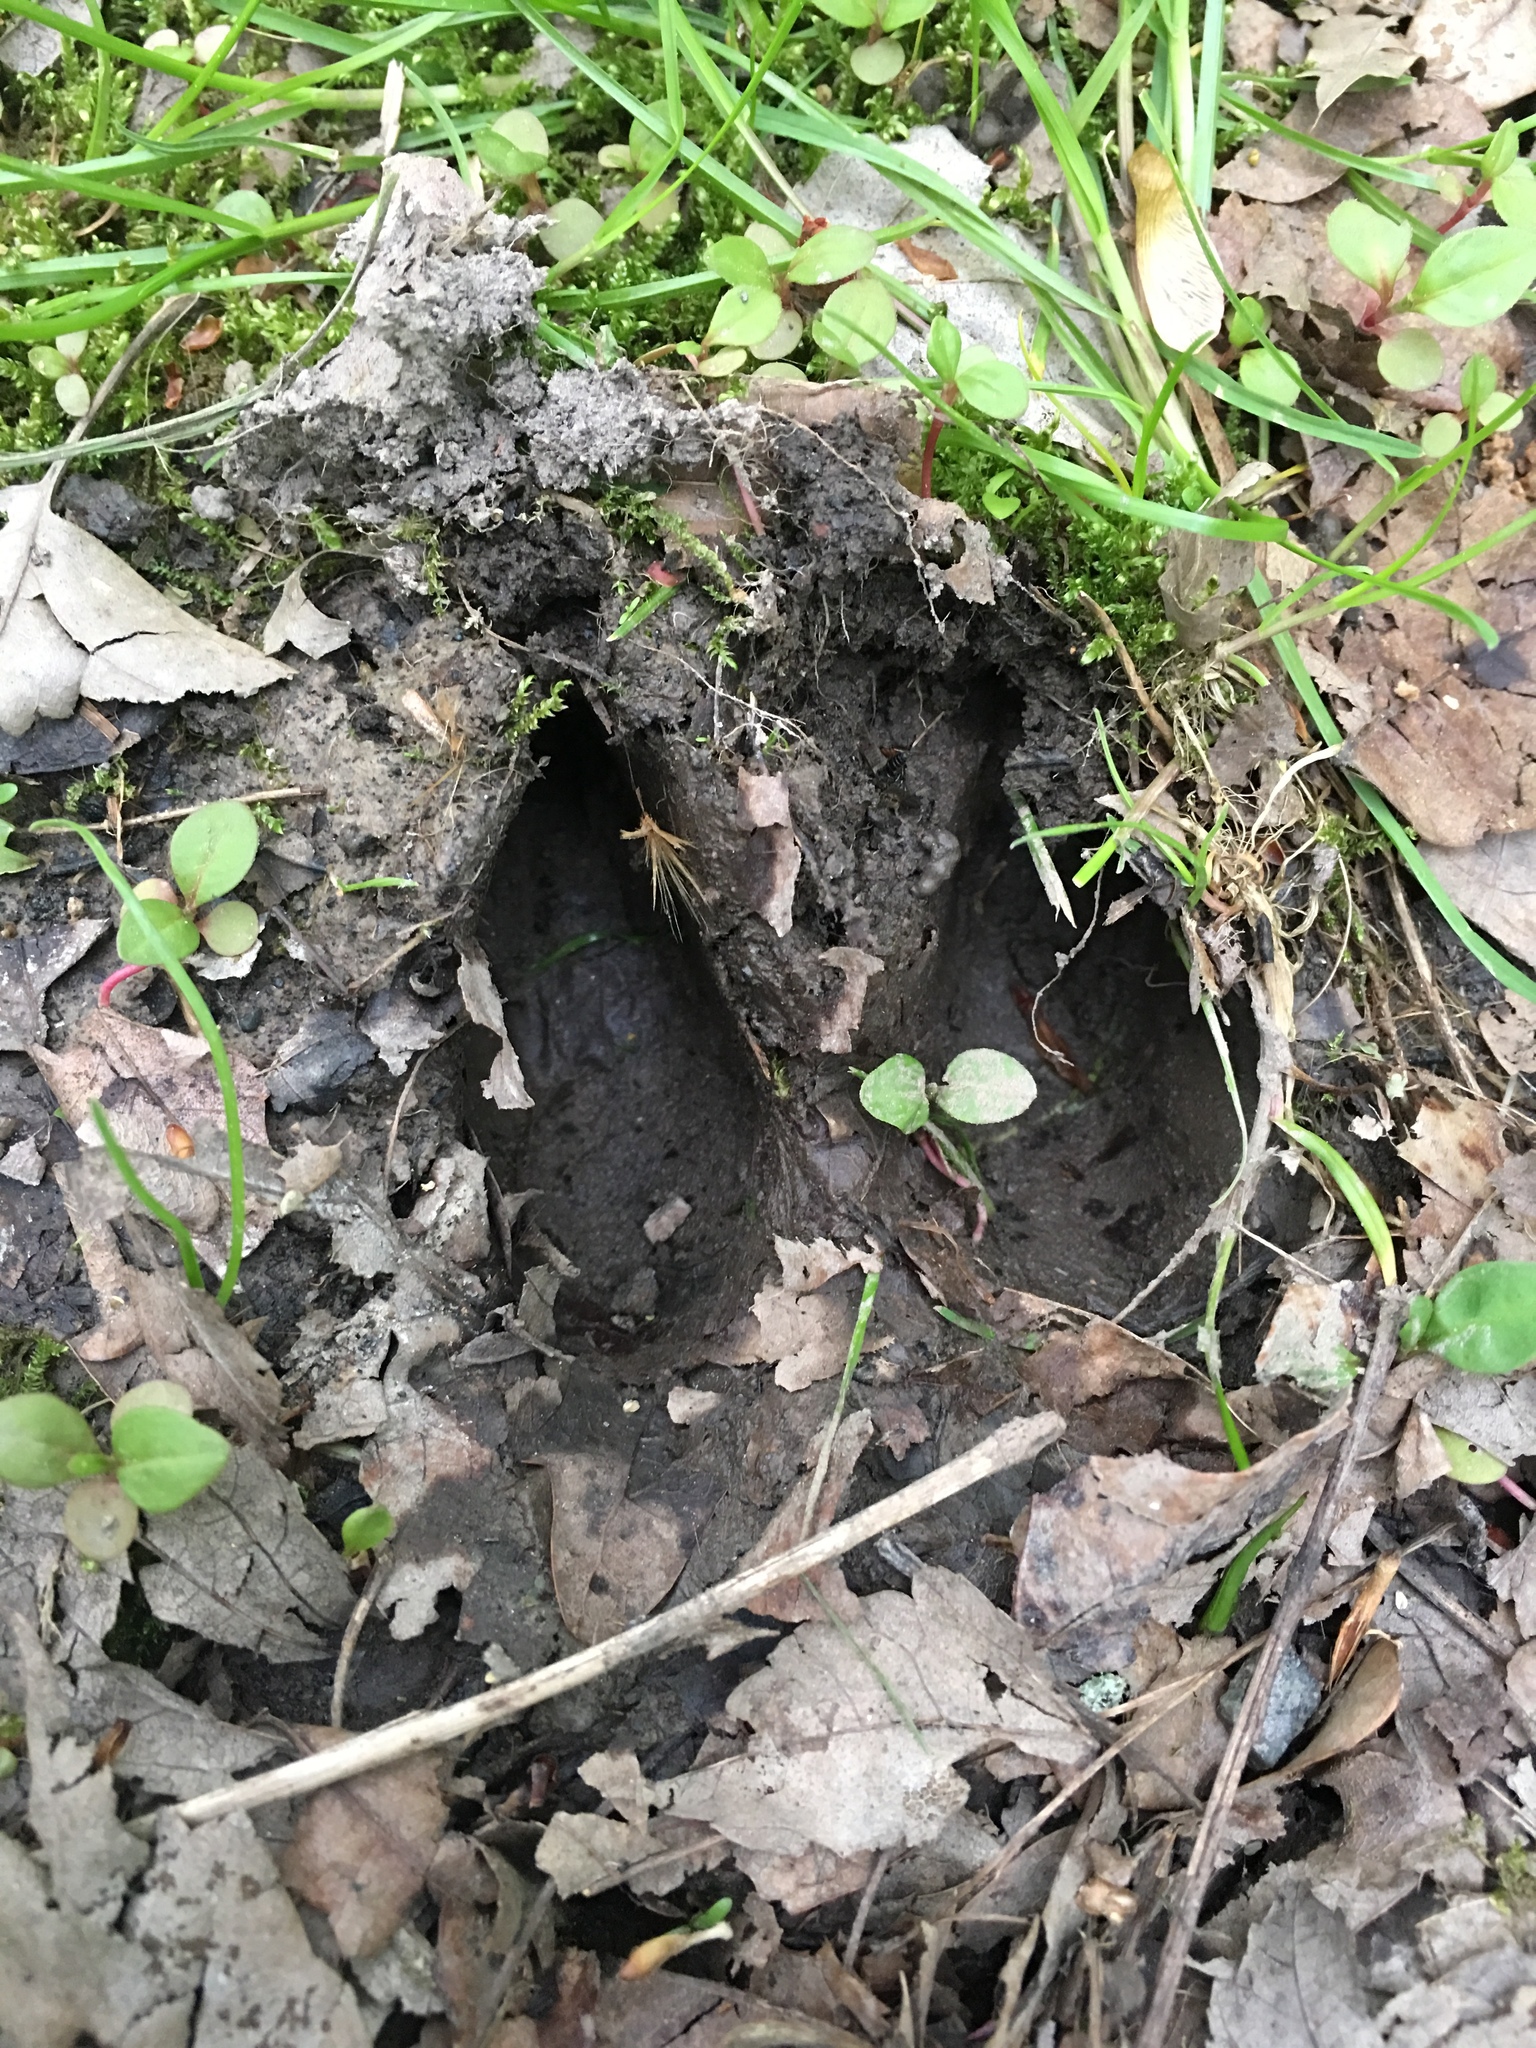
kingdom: Animalia
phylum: Chordata
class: Mammalia
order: Artiodactyla
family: Cervidae
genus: Odocoileus
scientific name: Odocoileus virginianus
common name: White-tailed deer
